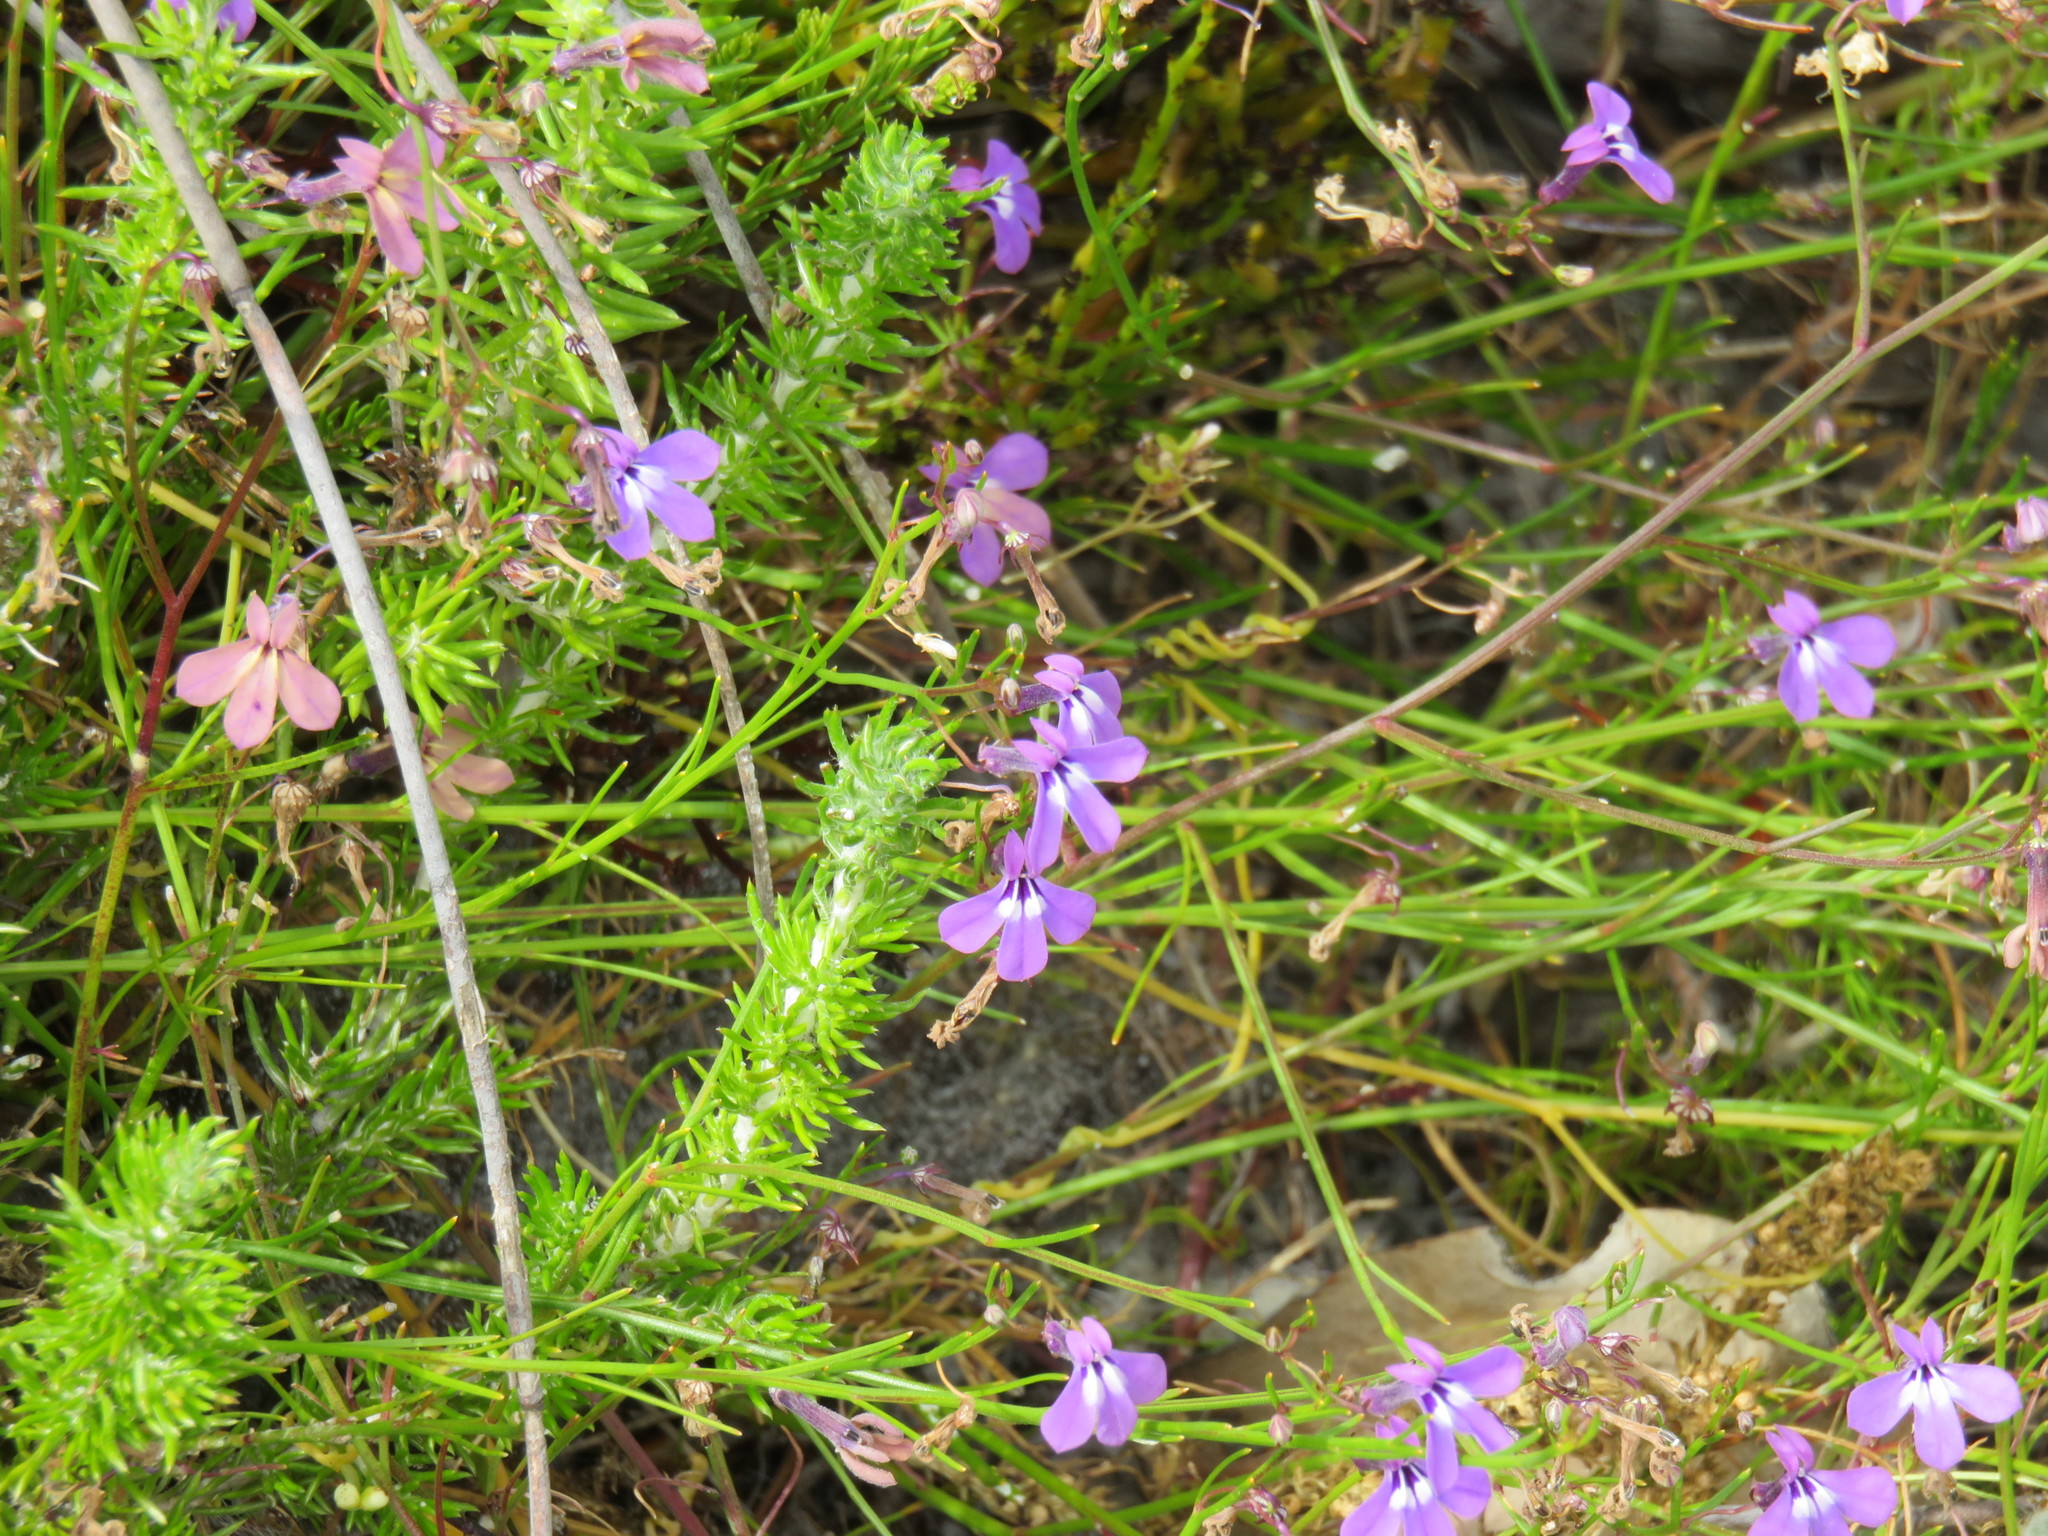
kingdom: Plantae
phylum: Tracheophyta
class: Magnoliopsida
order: Asterales
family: Campanulaceae
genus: Lobelia
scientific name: Lobelia setacea
